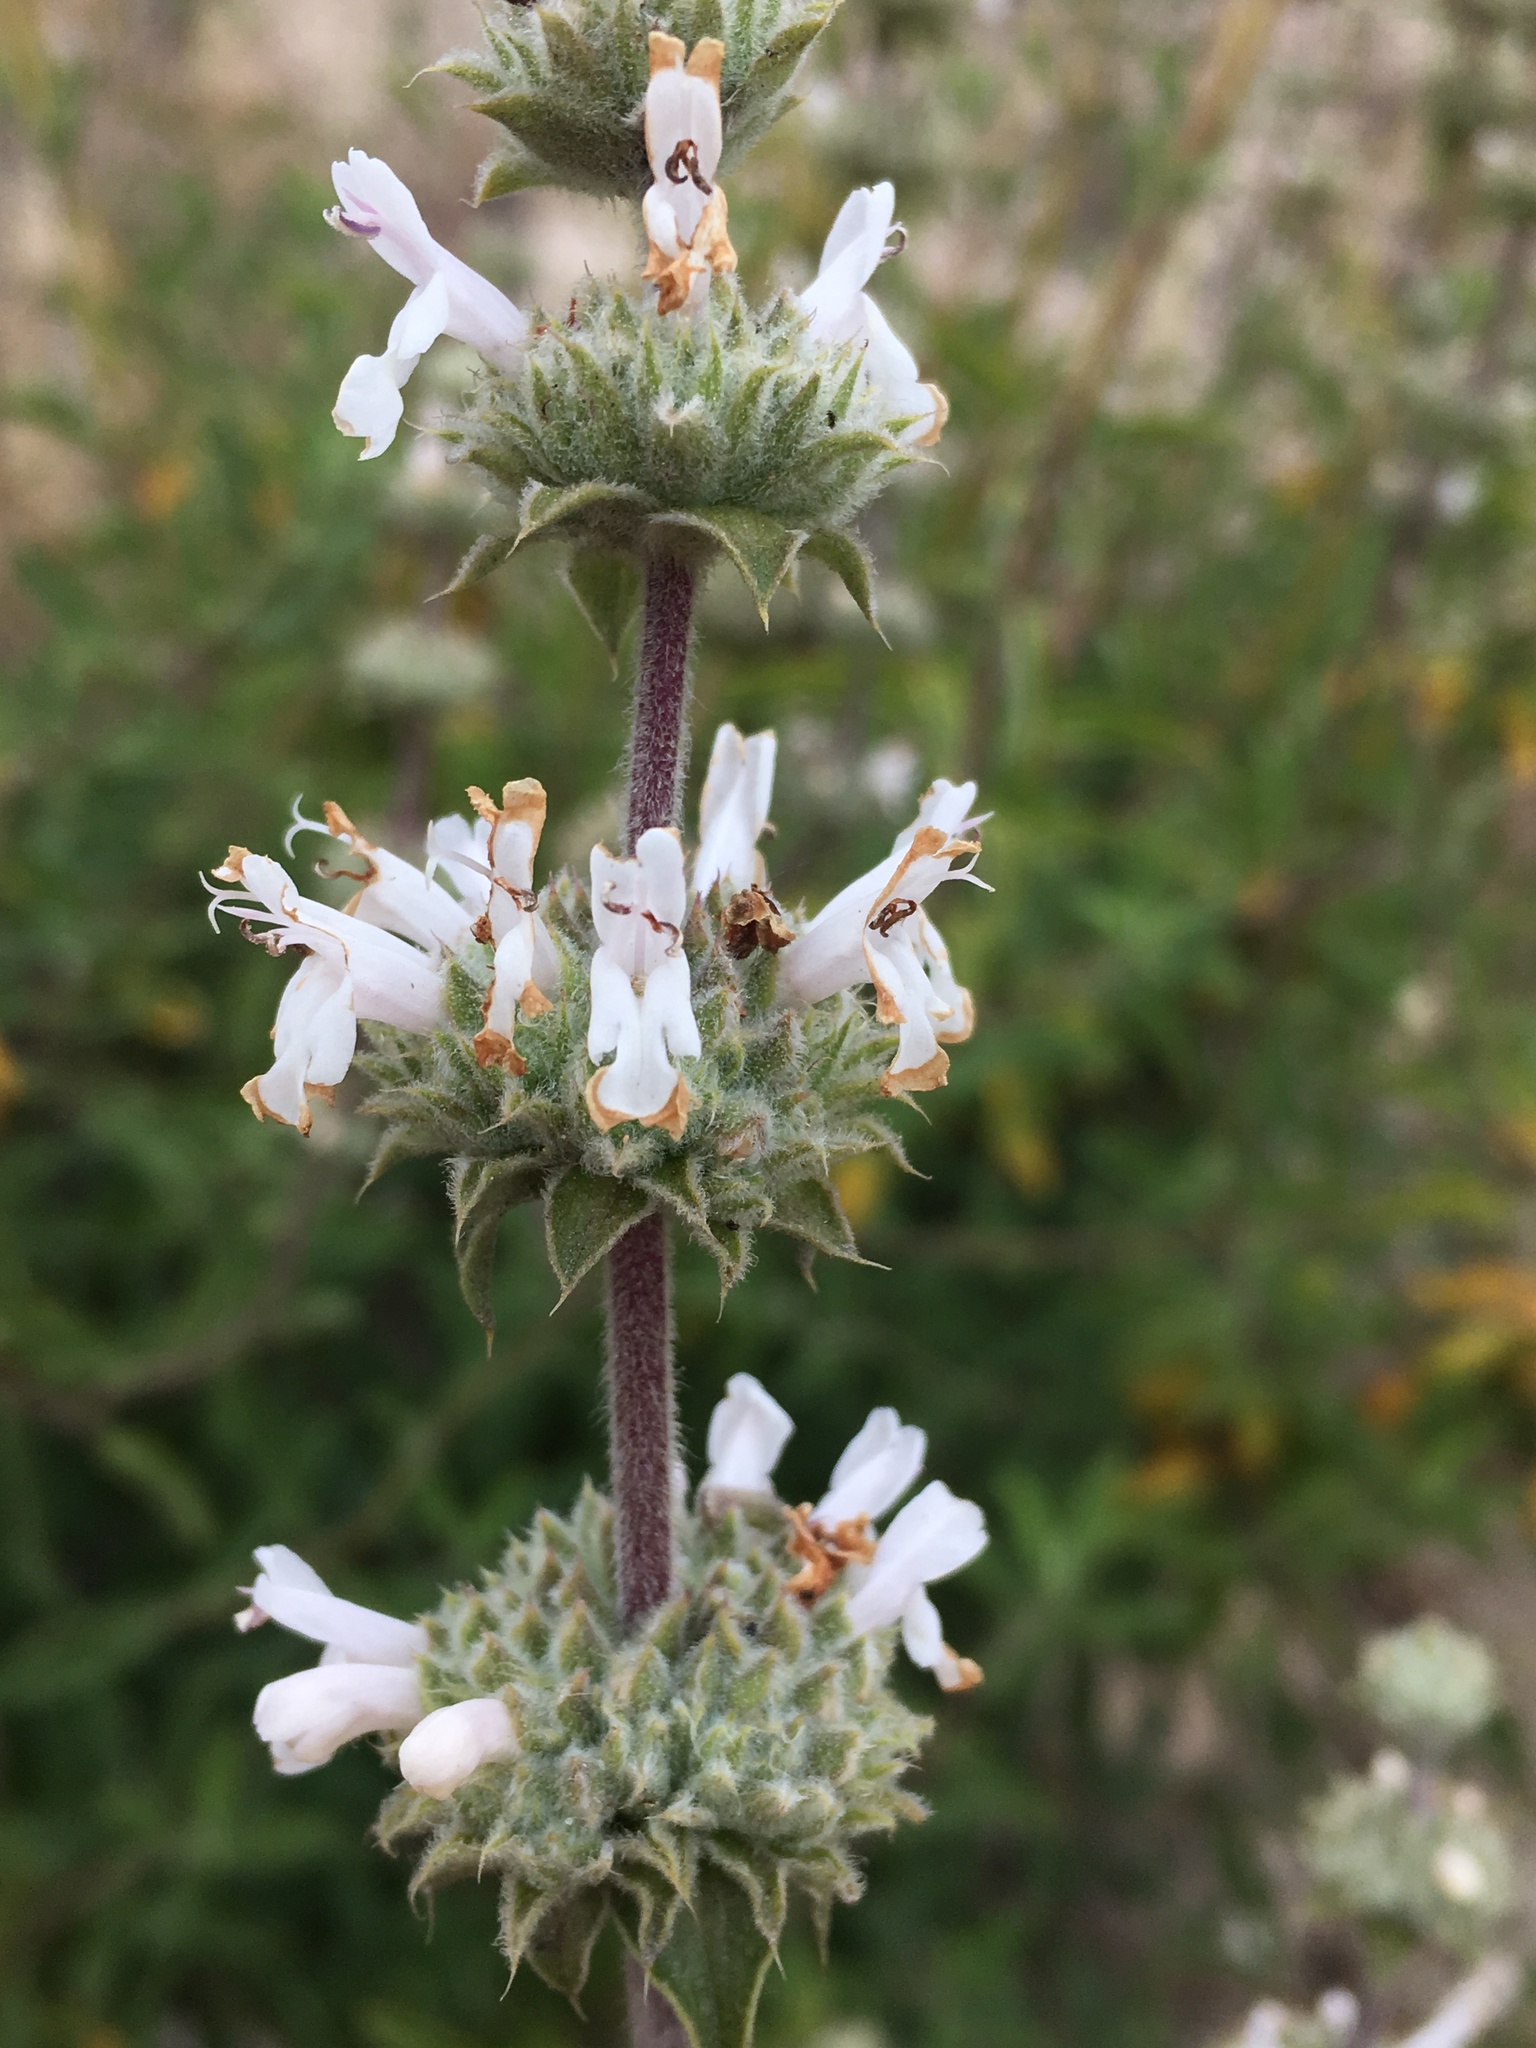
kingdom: Plantae
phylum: Tracheophyta
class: Magnoliopsida
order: Lamiales
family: Lamiaceae
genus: Salvia
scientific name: Salvia mellifera
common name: Black sage
